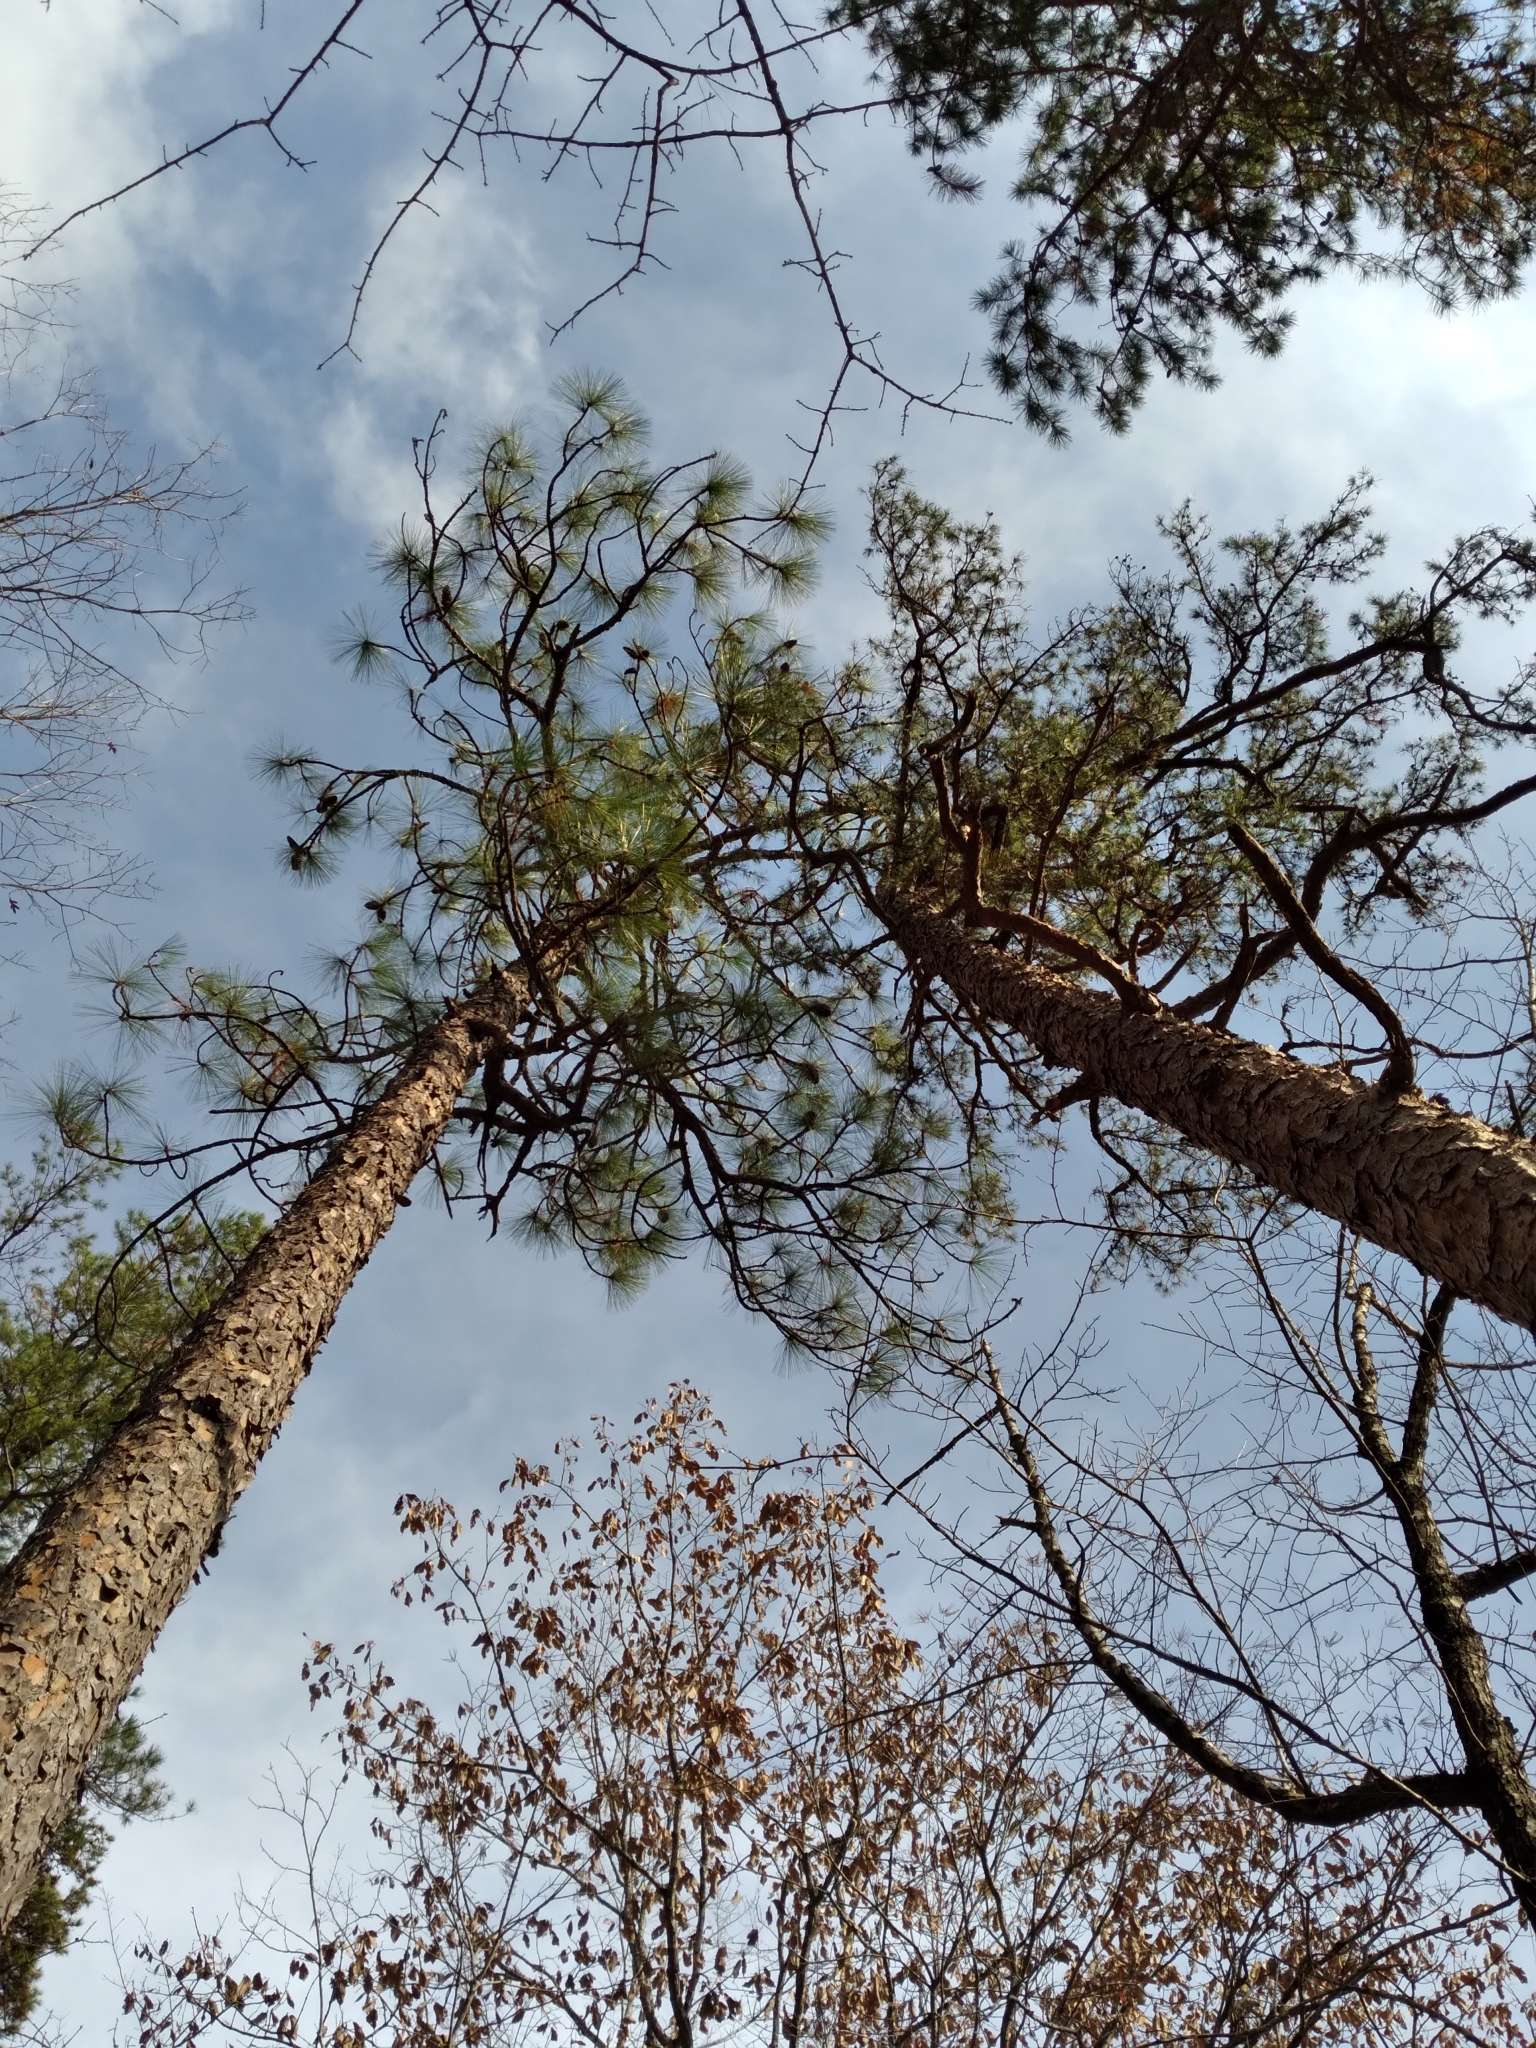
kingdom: Plantae
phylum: Tracheophyta
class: Pinopsida
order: Pinales
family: Pinaceae
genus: Pinus
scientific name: Pinus palustris
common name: Longleaf pine
